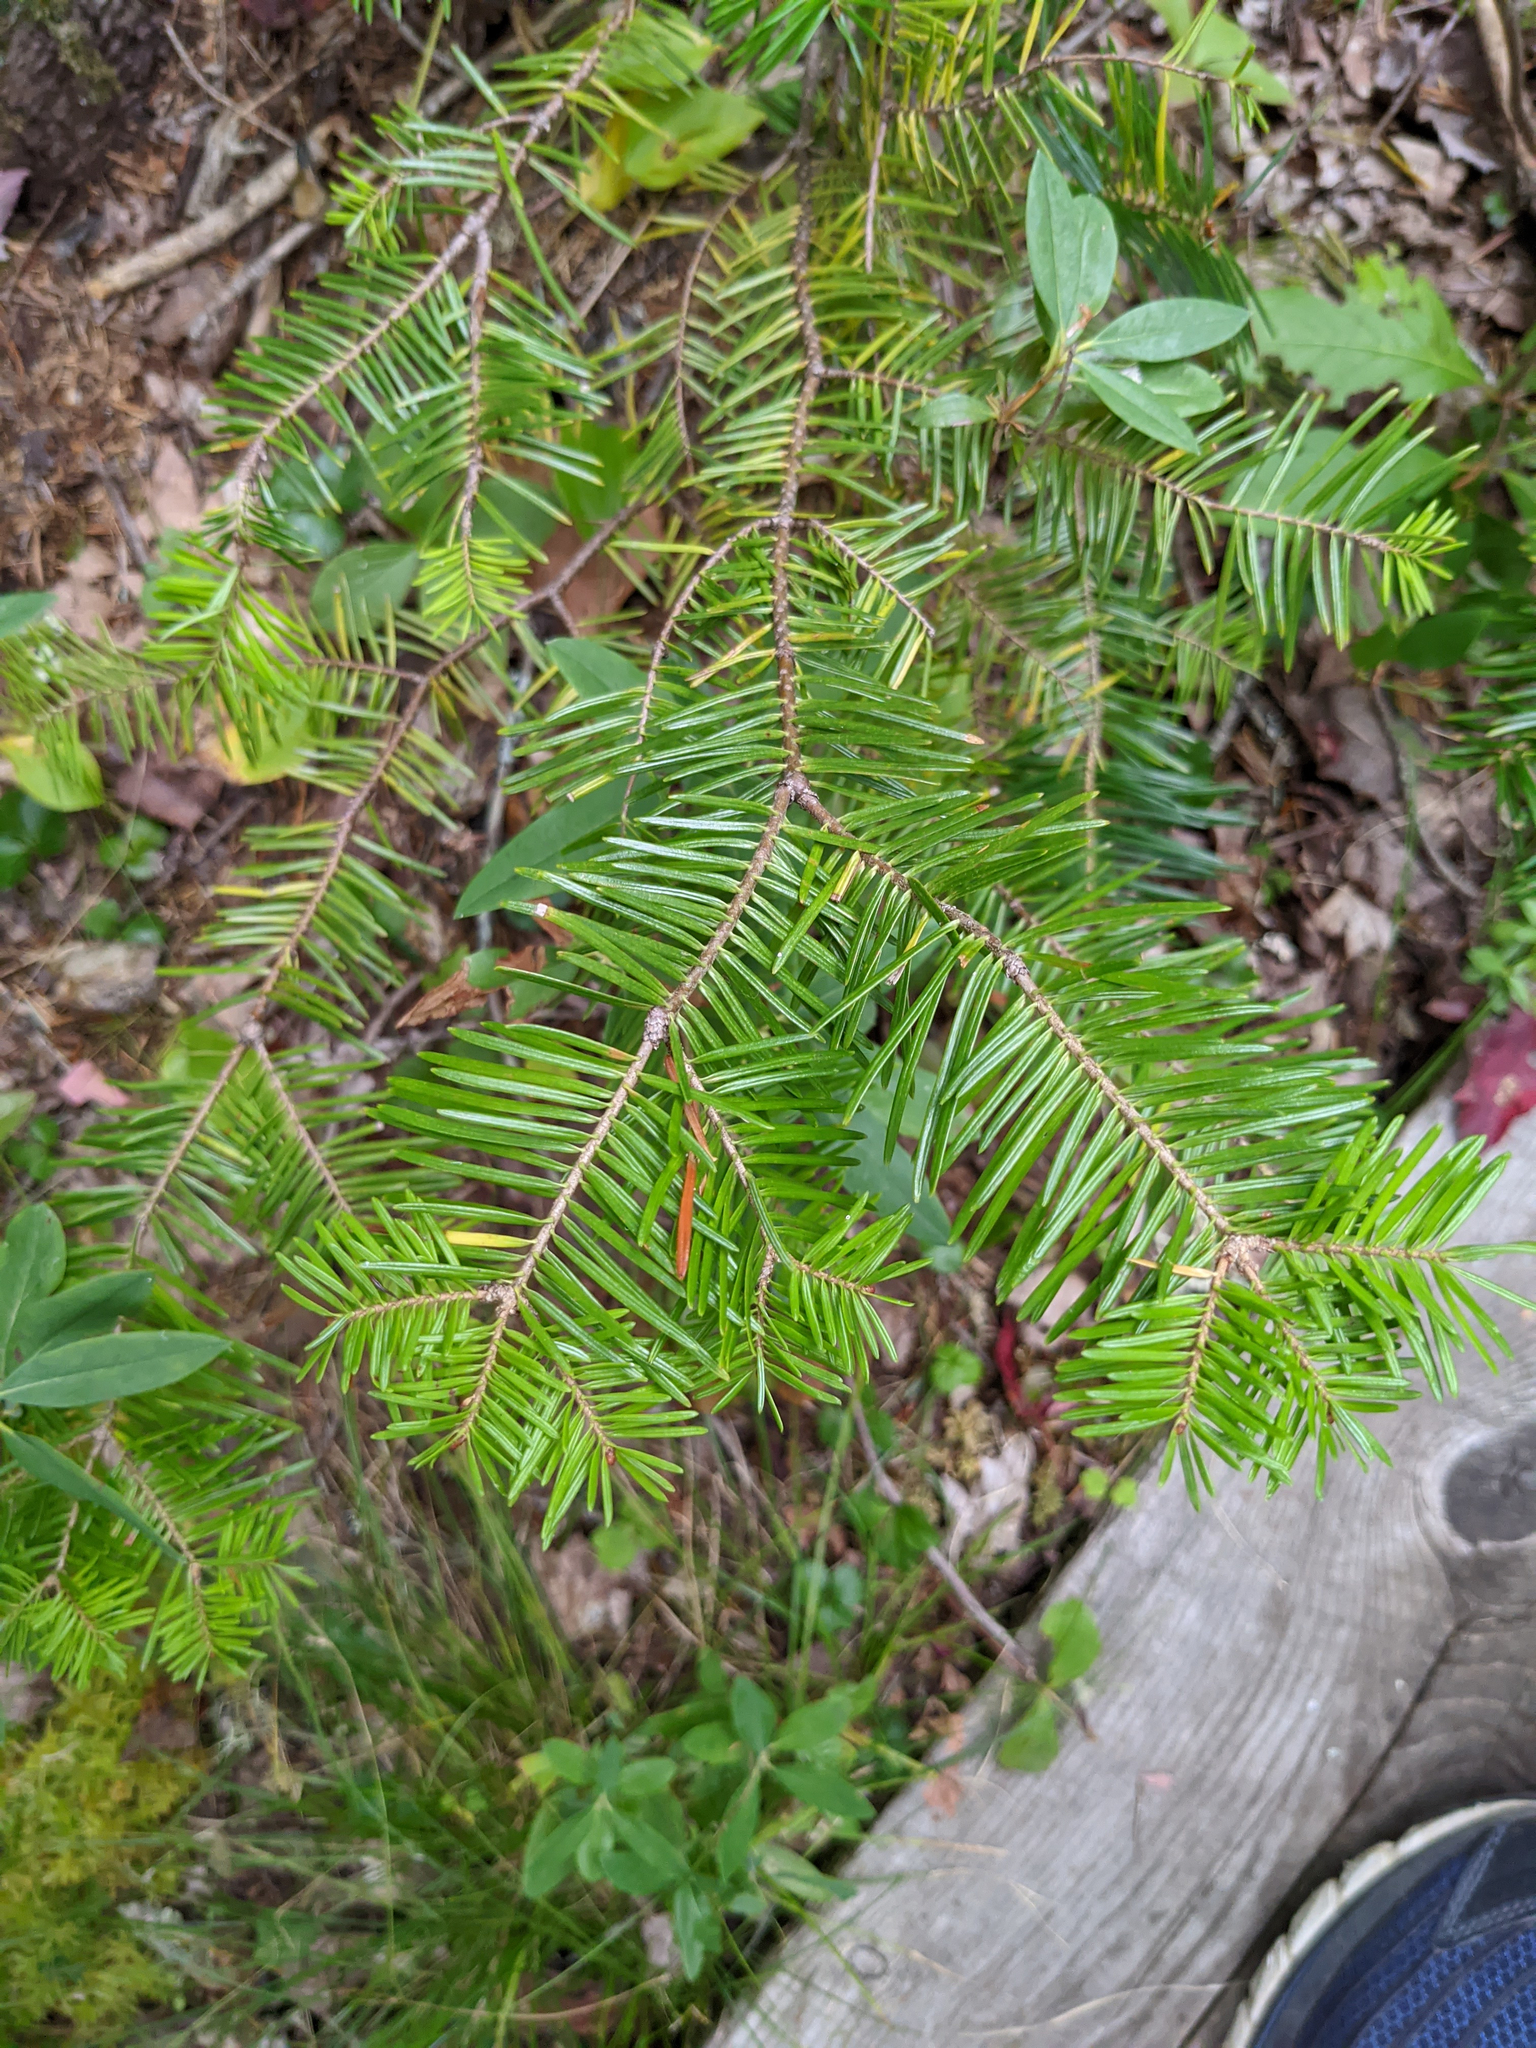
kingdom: Plantae
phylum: Tracheophyta
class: Pinopsida
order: Pinales
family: Pinaceae
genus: Abies
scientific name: Abies balsamea
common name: Balsam fir
